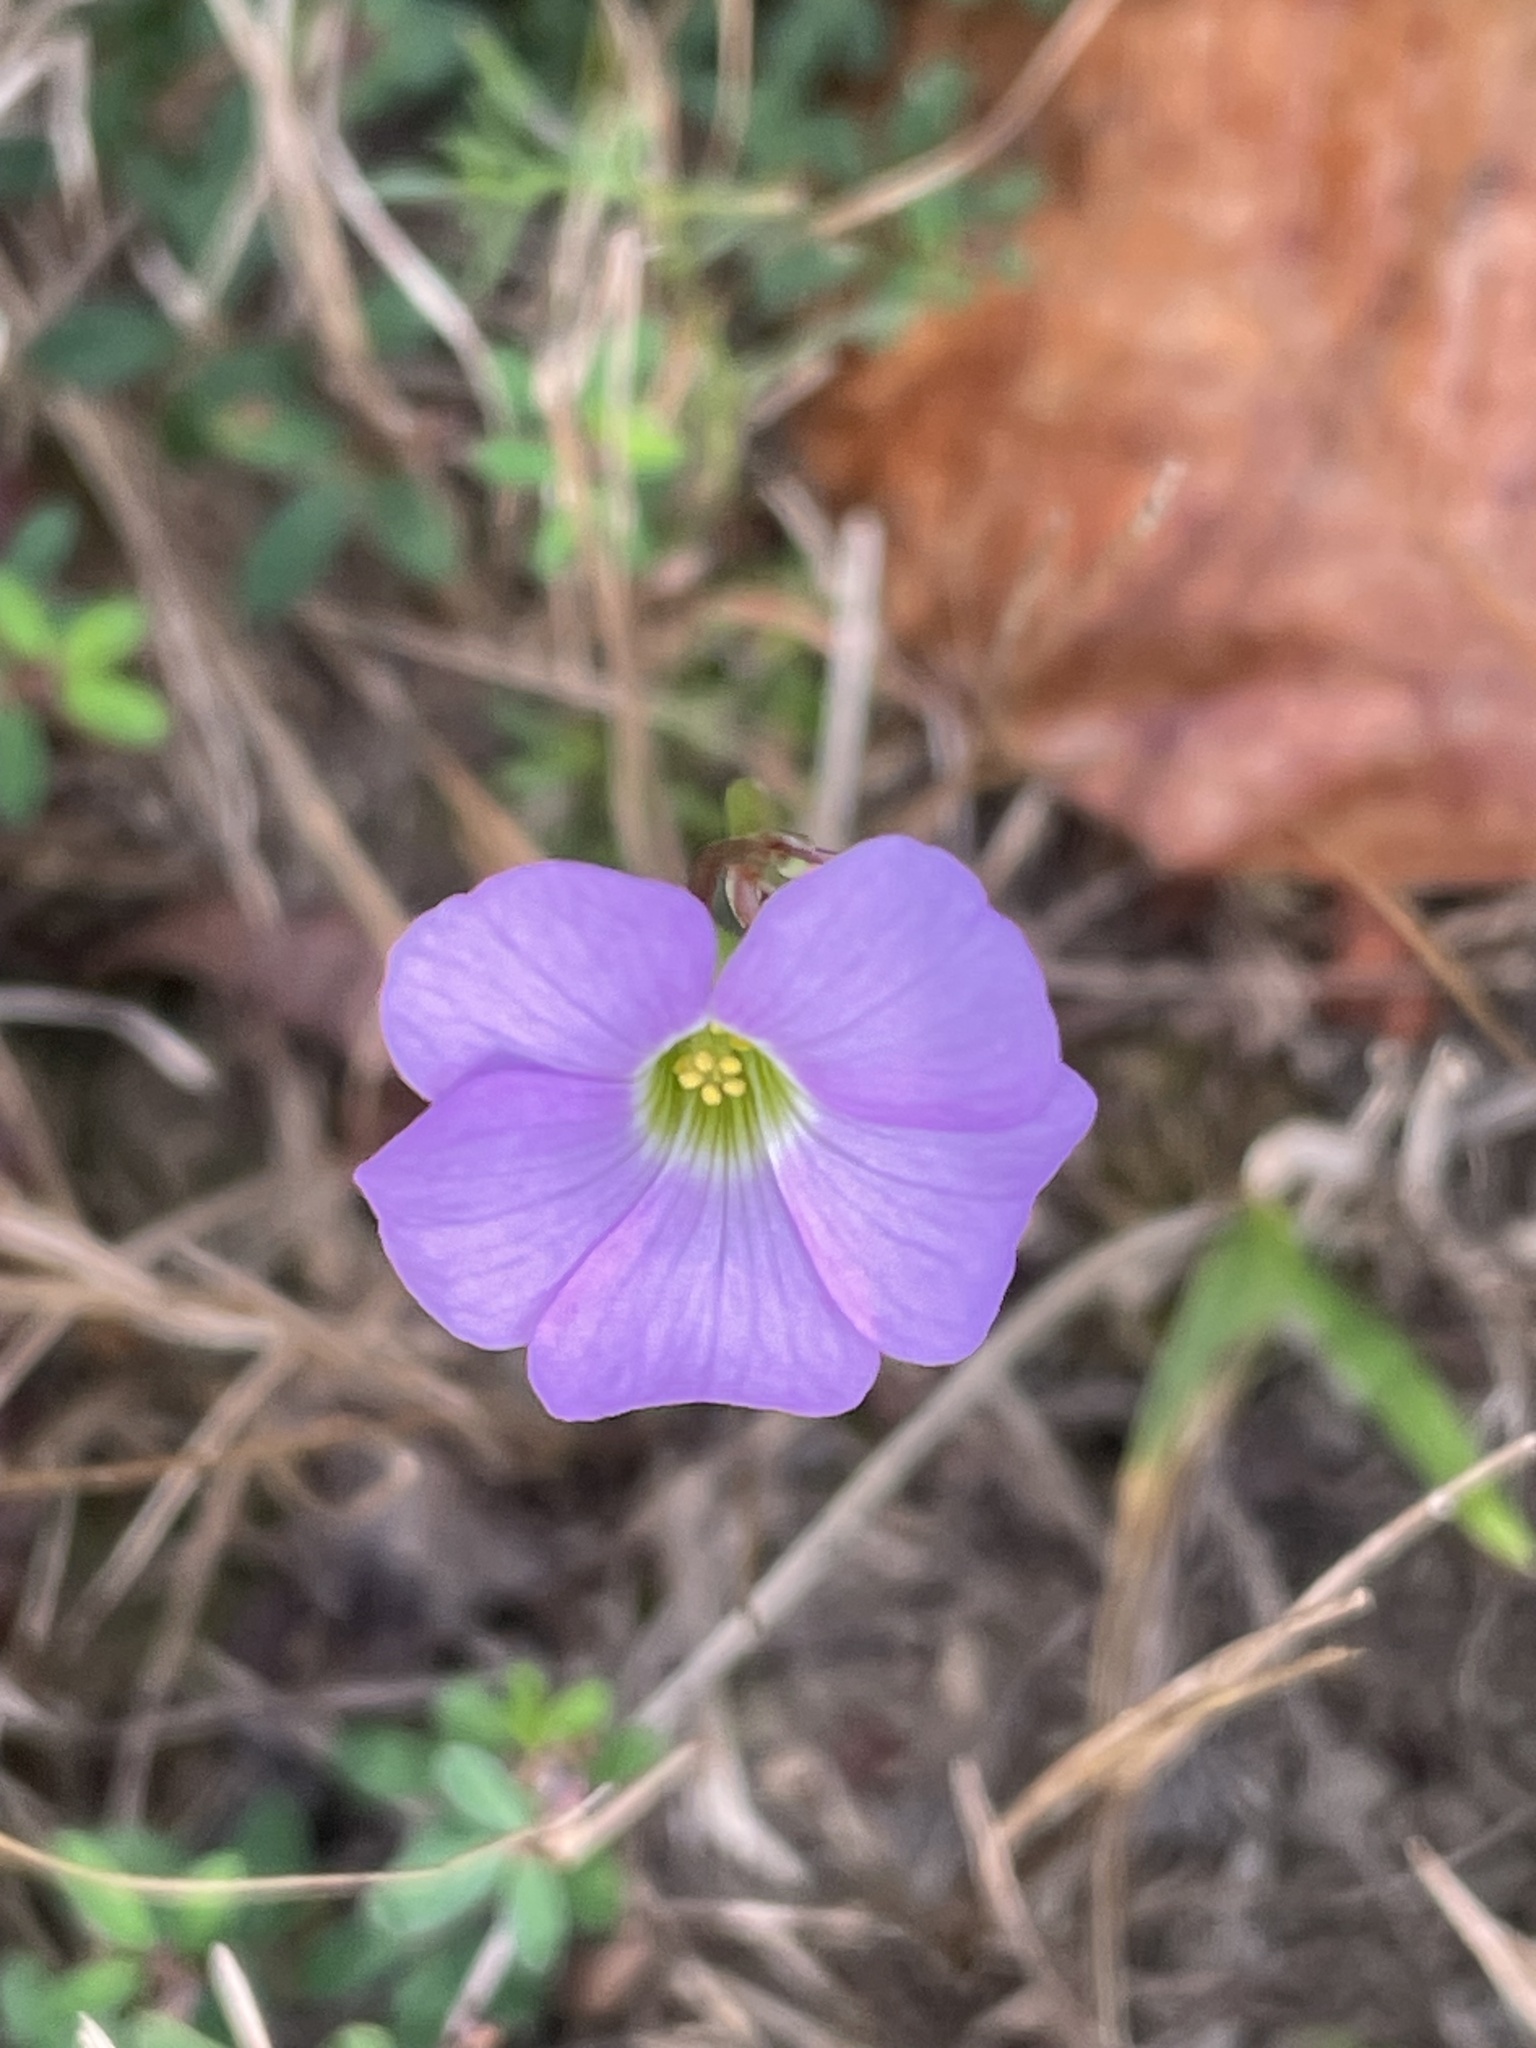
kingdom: Plantae
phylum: Tracheophyta
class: Magnoliopsida
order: Oxalidales
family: Oxalidaceae
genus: Oxalis
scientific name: Oxalis violacea
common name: Violet wood-sorrel
